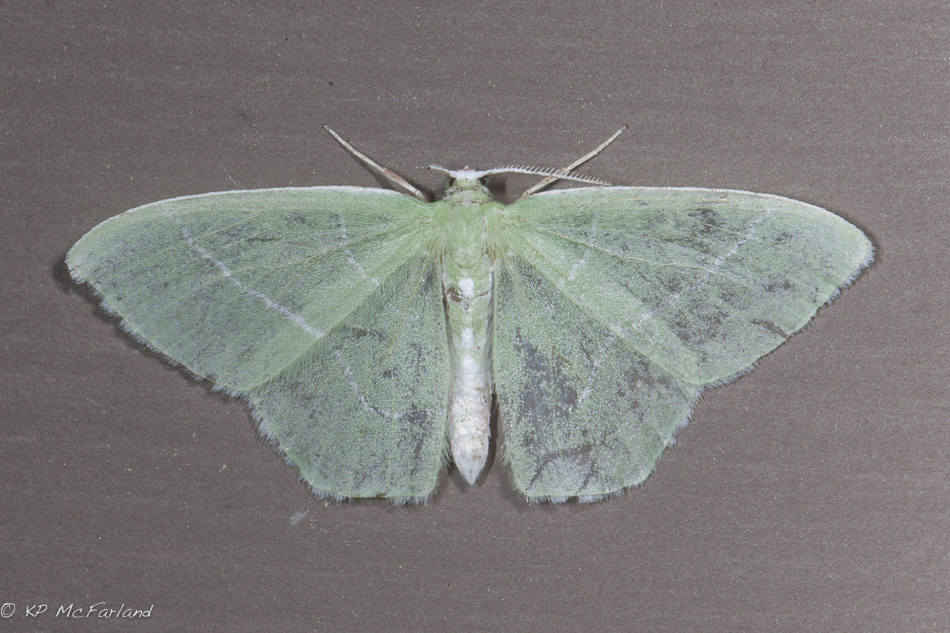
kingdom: Animalia
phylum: Arthropoda
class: Insecta
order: Lepidoptera
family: Geometridae
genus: Nemoria
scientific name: Nemoria mimosaria
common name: White-fringed emerald
